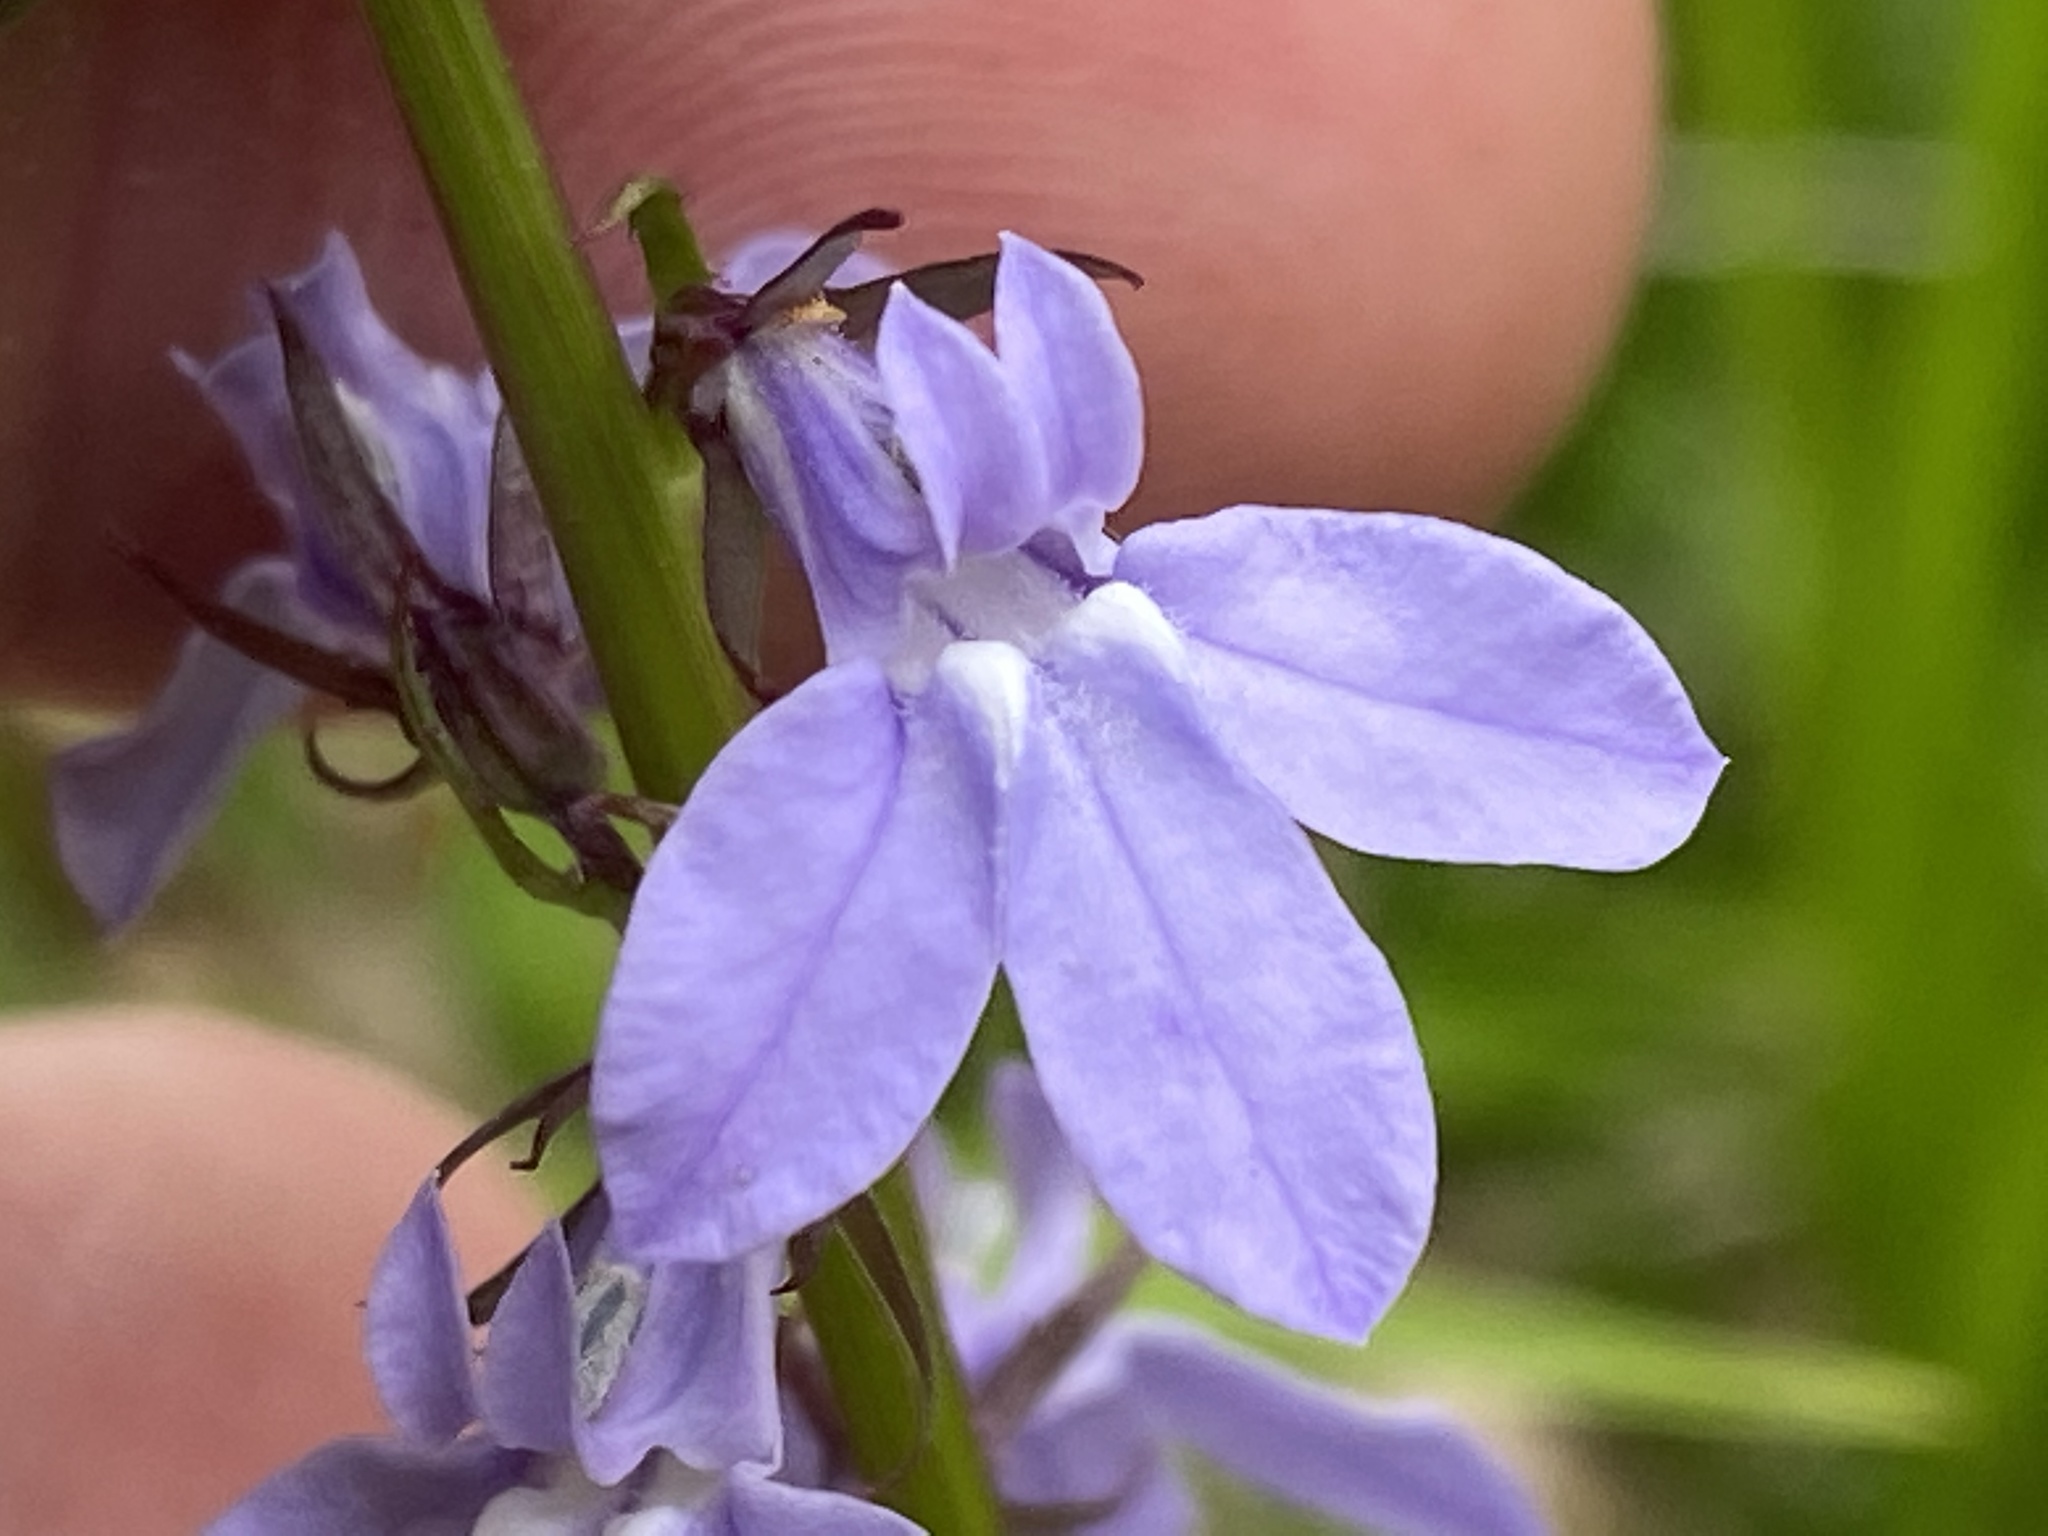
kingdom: Plantae
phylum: Tracheophyta
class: Magnoliopsida
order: Asterales
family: Campanulaceae
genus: Lobelia
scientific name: Lobelia gattingeri
